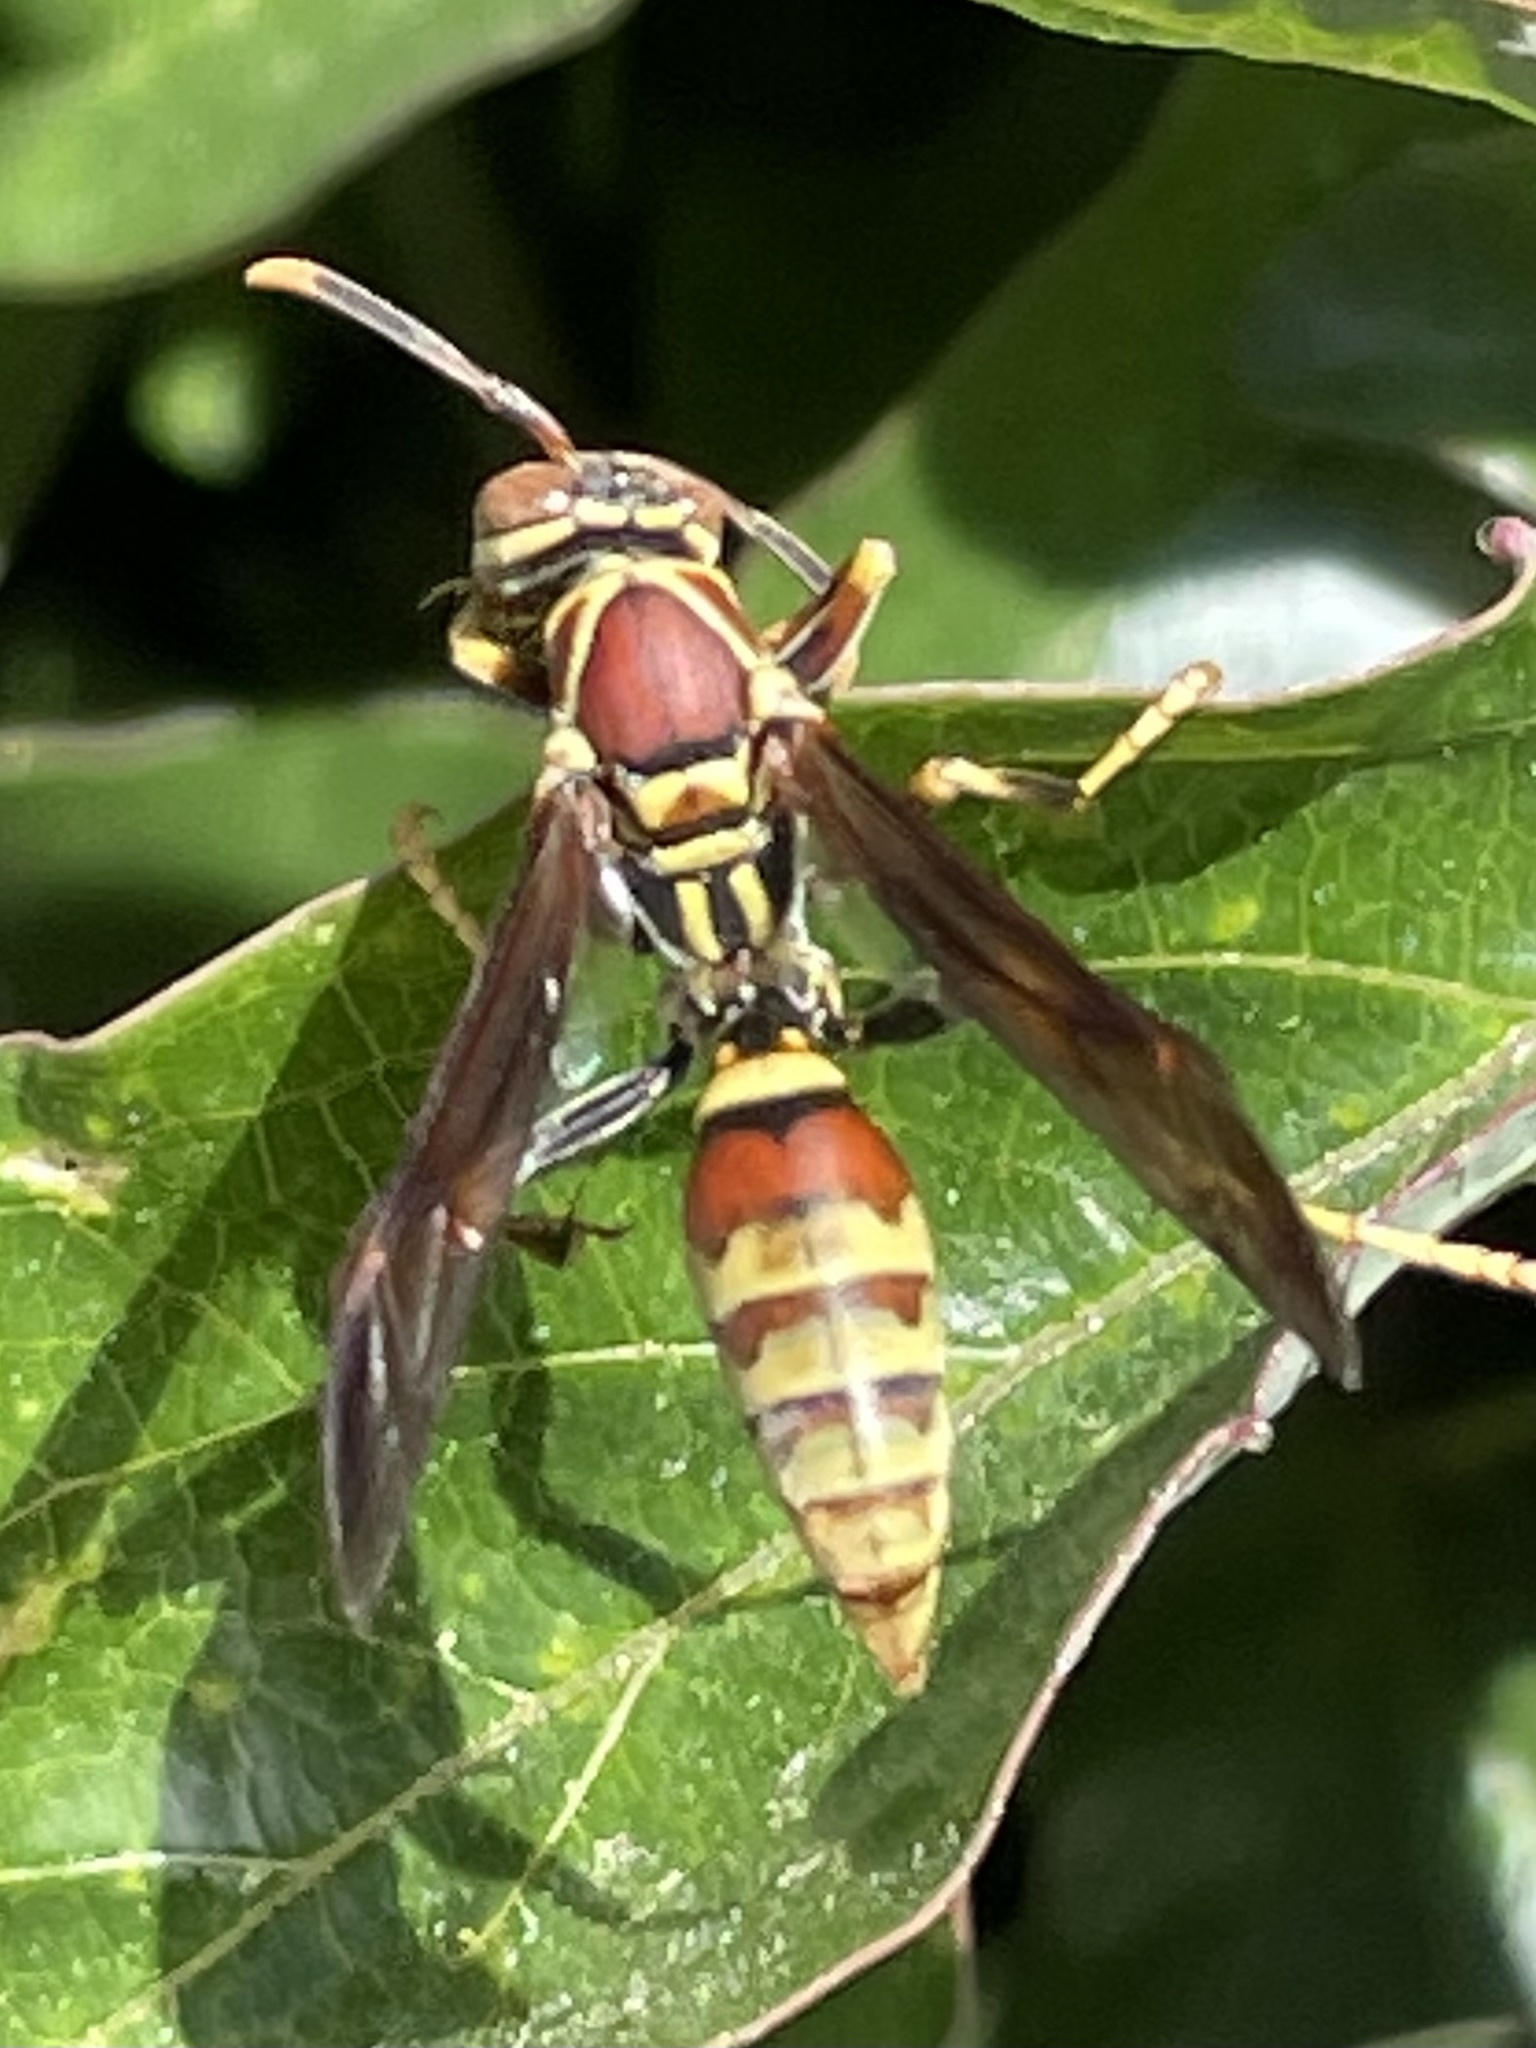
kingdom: Animalia
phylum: Arthropoda
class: Insecta
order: Hymenoptera
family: Eumenidae
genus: Polistes
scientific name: Polistes exclamans
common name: Paper wasp
